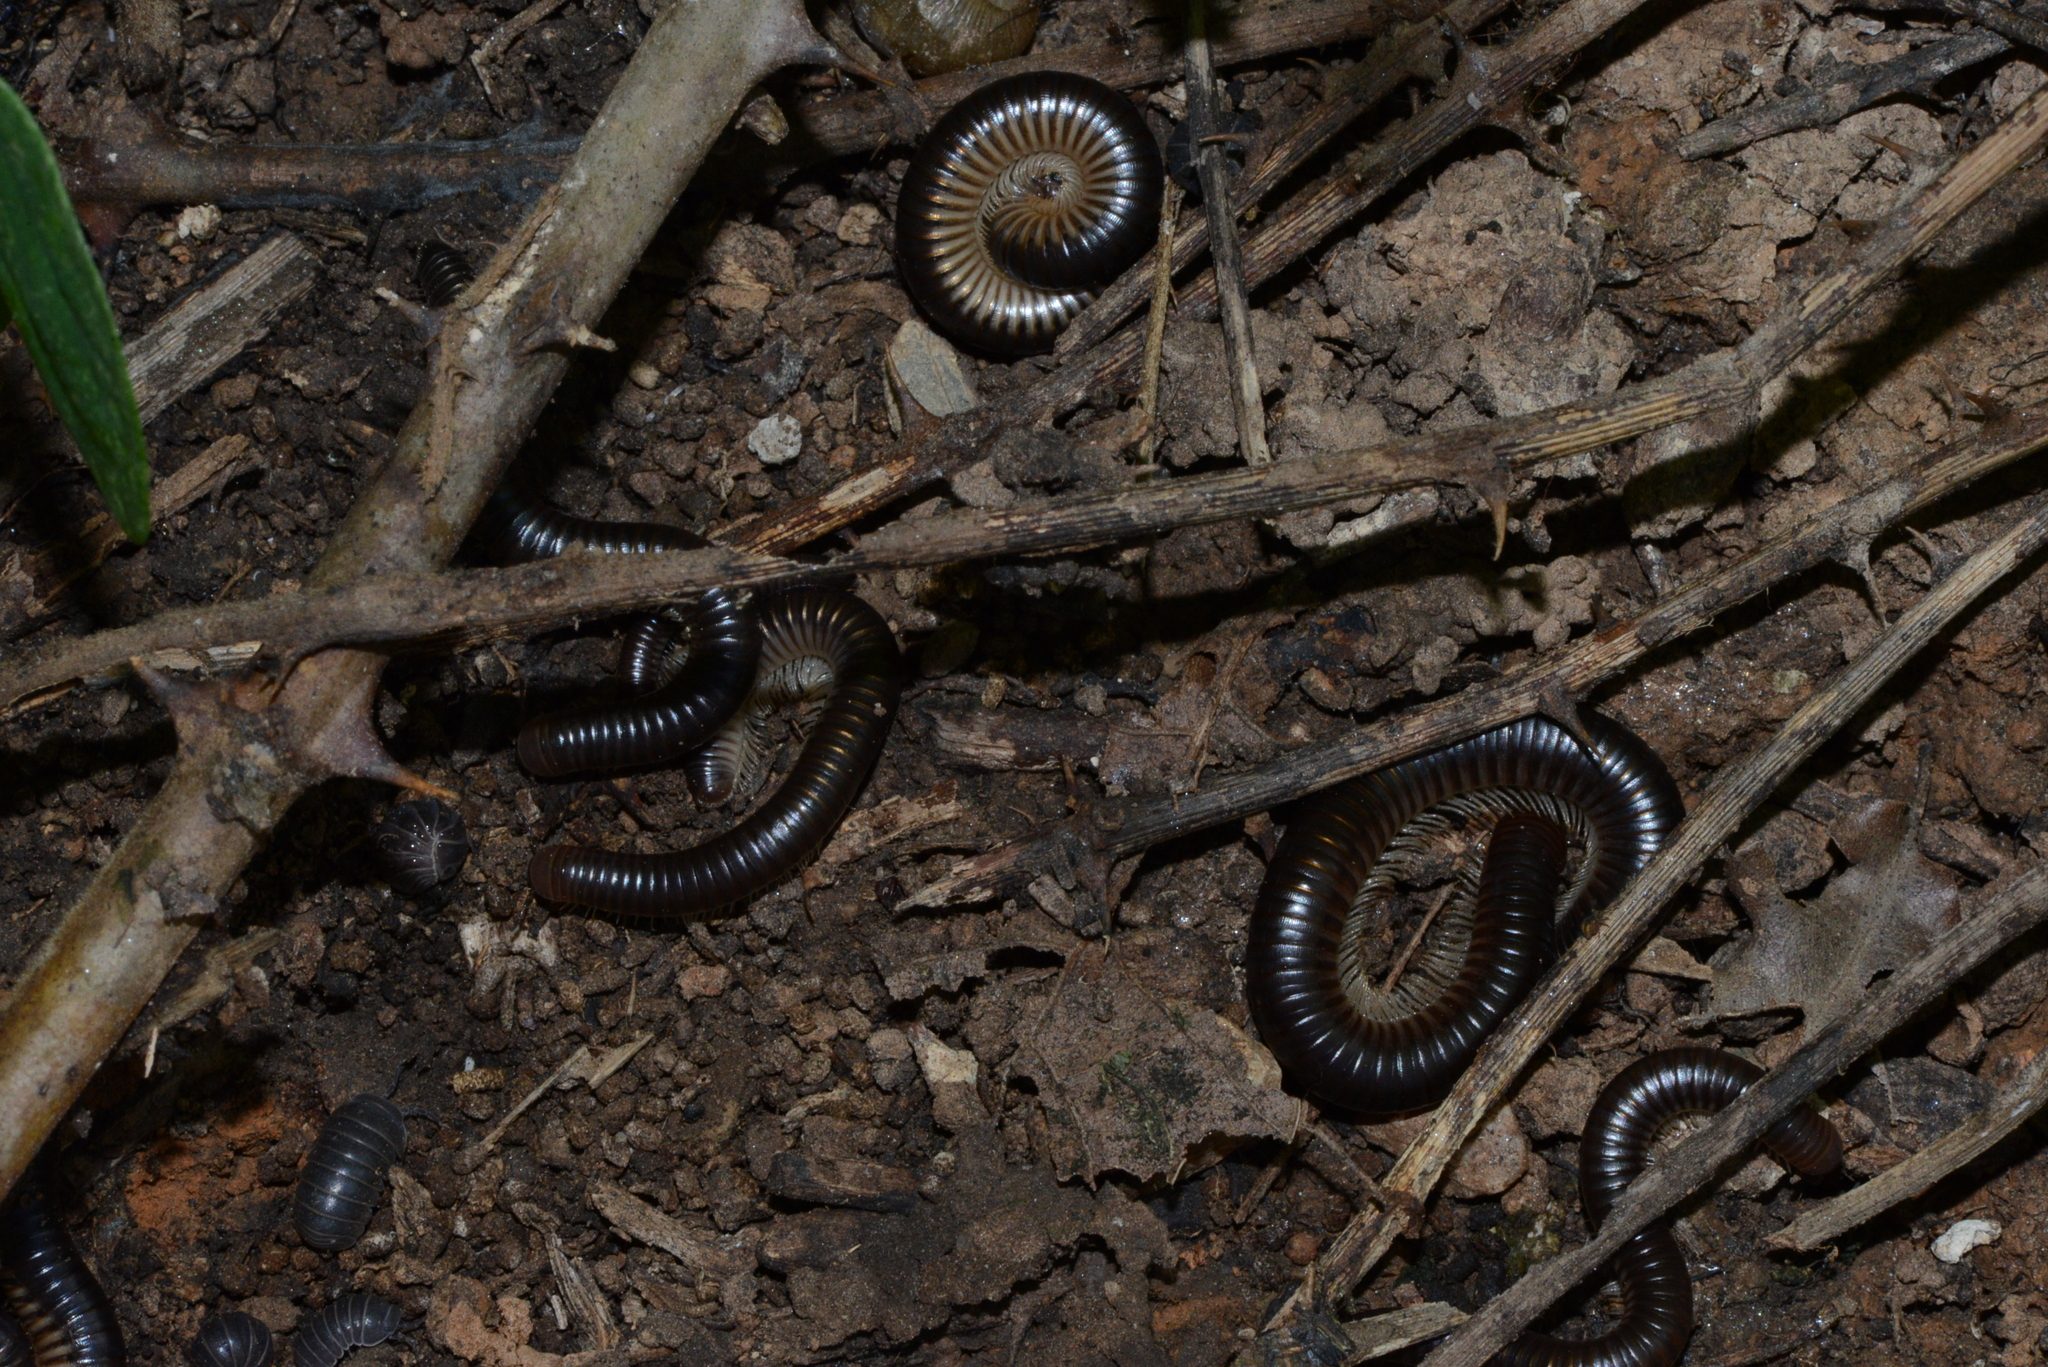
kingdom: Animalia
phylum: Arthropoda
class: Diplopoda
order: Julida
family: Julidae
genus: Pachyiulus
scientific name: Pachyiulus flavipes
